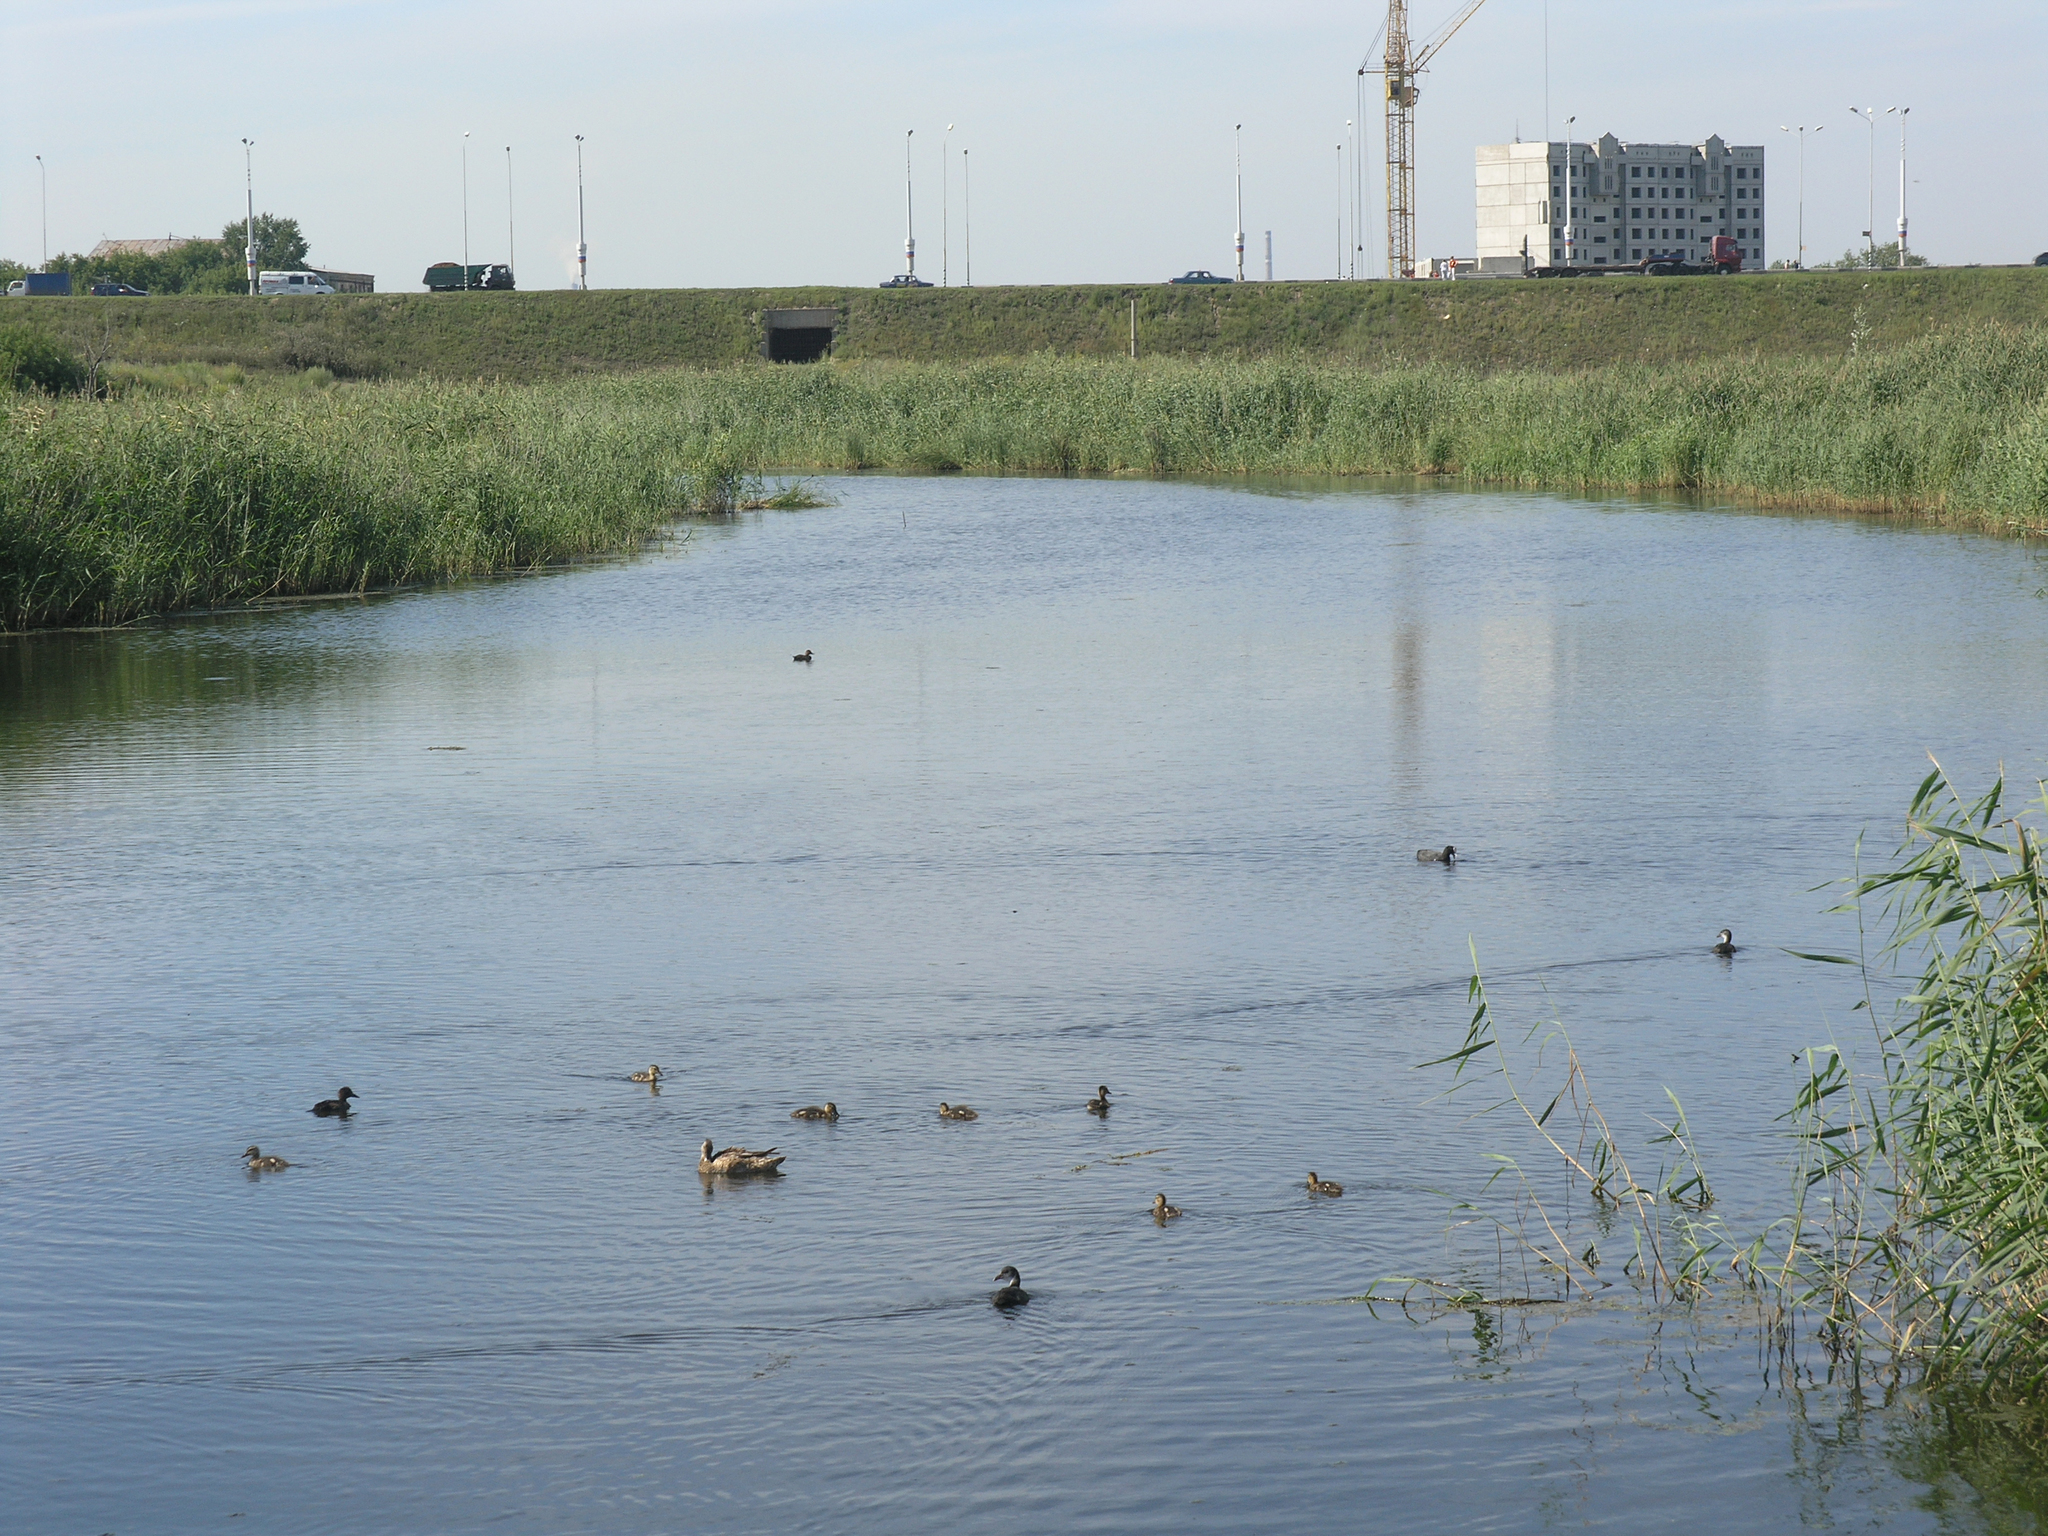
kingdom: Plantae
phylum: Tracheophyta
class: Liliopsida
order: Poales
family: Poaceae
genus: Phragmites
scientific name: Phragmites australis
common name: Common reed
